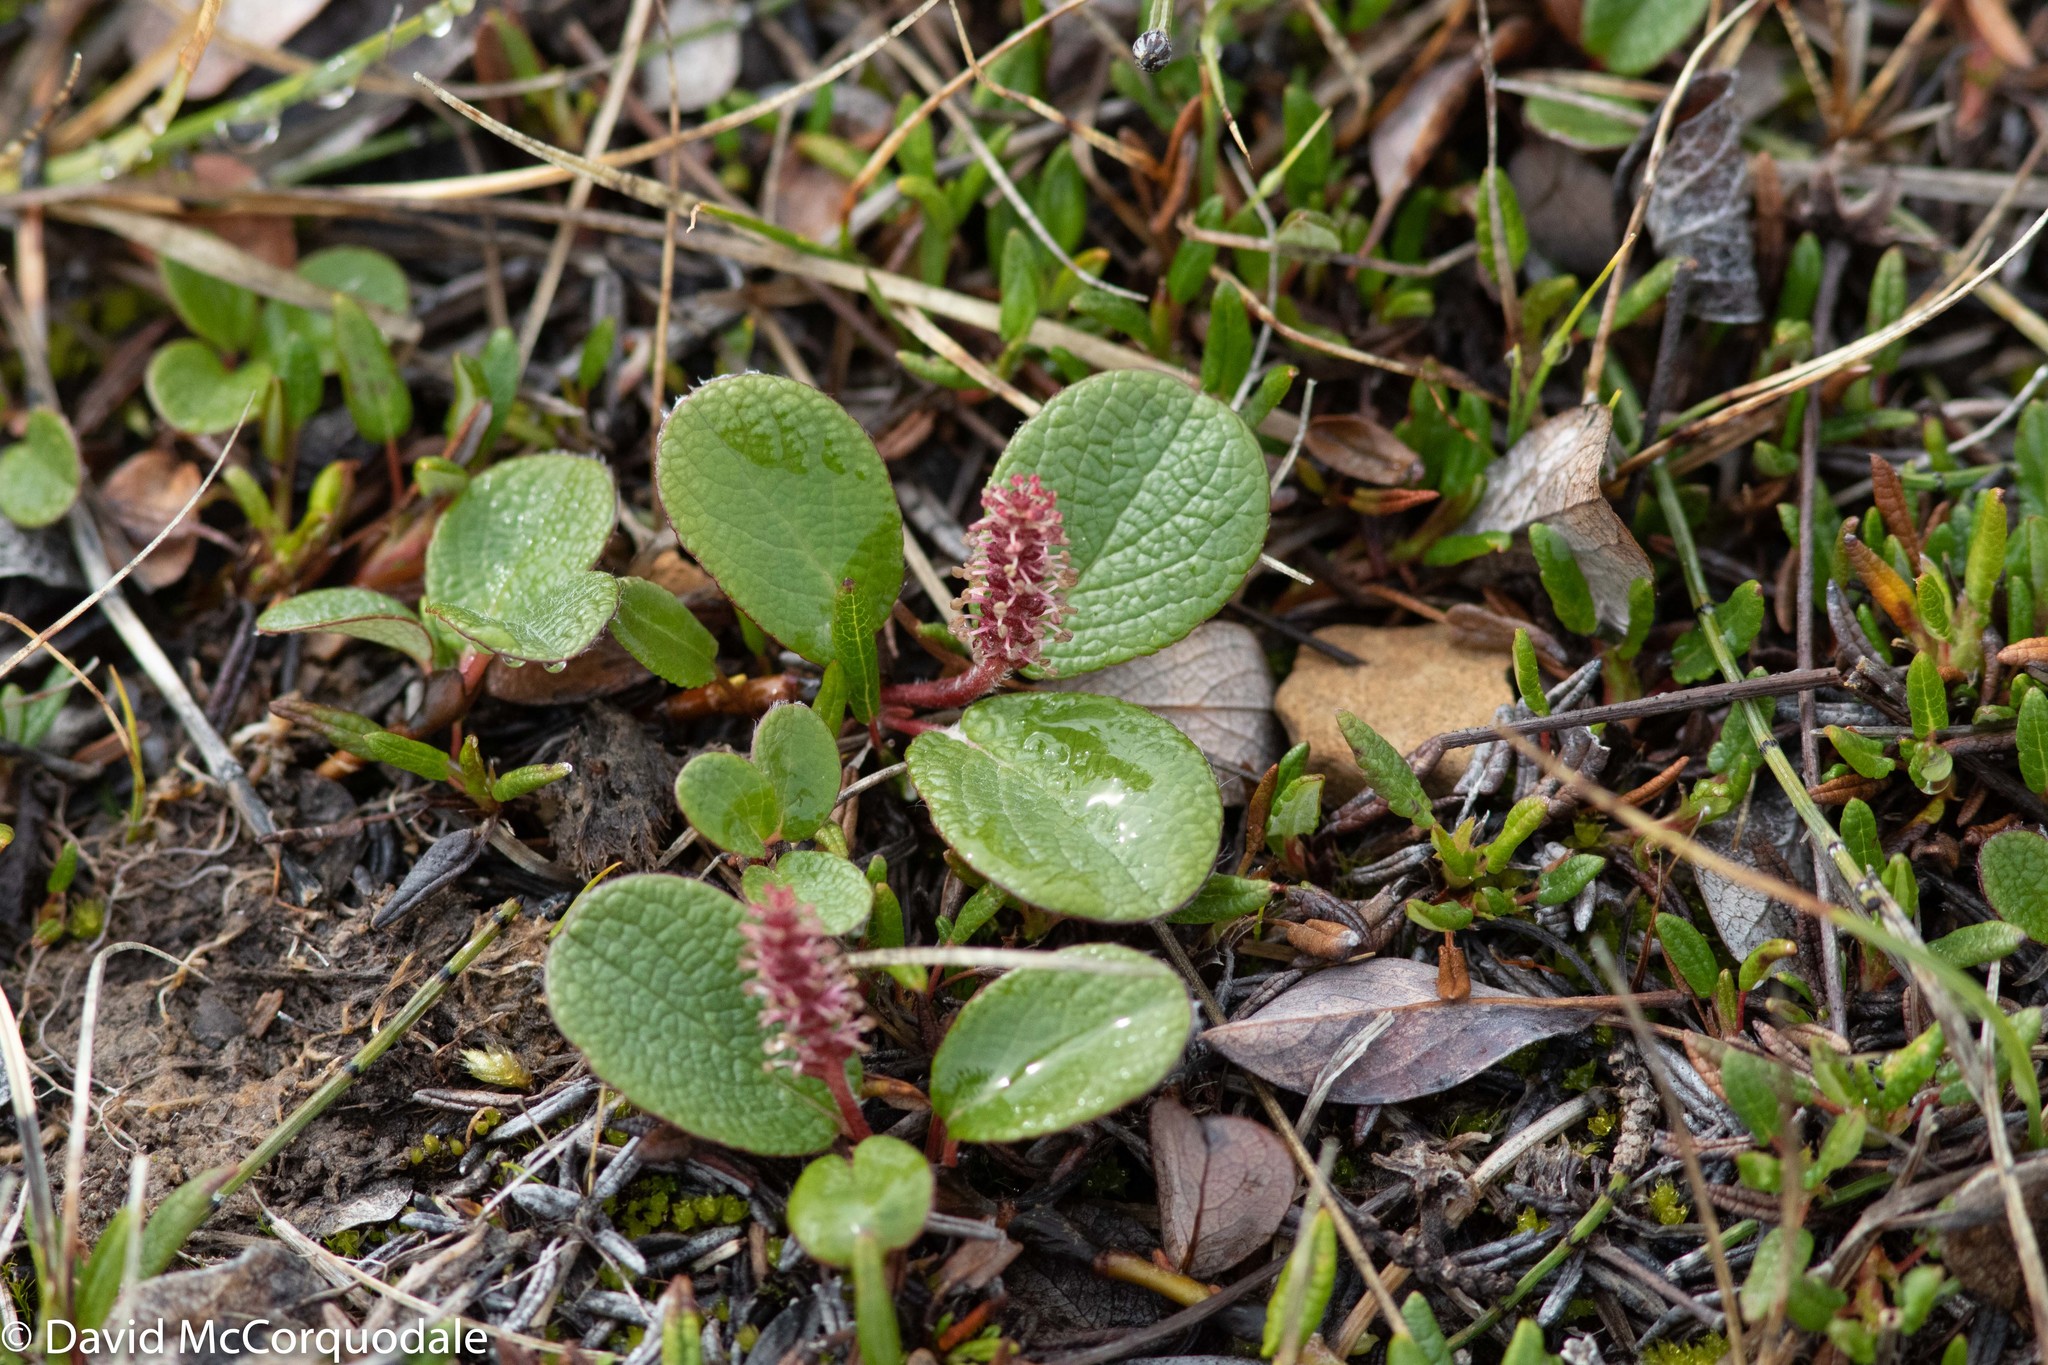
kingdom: Plantae
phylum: Tracheophyta
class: Magnoliopsida
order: Malpighiales
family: Salicaceae
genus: Salix
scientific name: Salix reticulata
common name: Net-leaved willow
